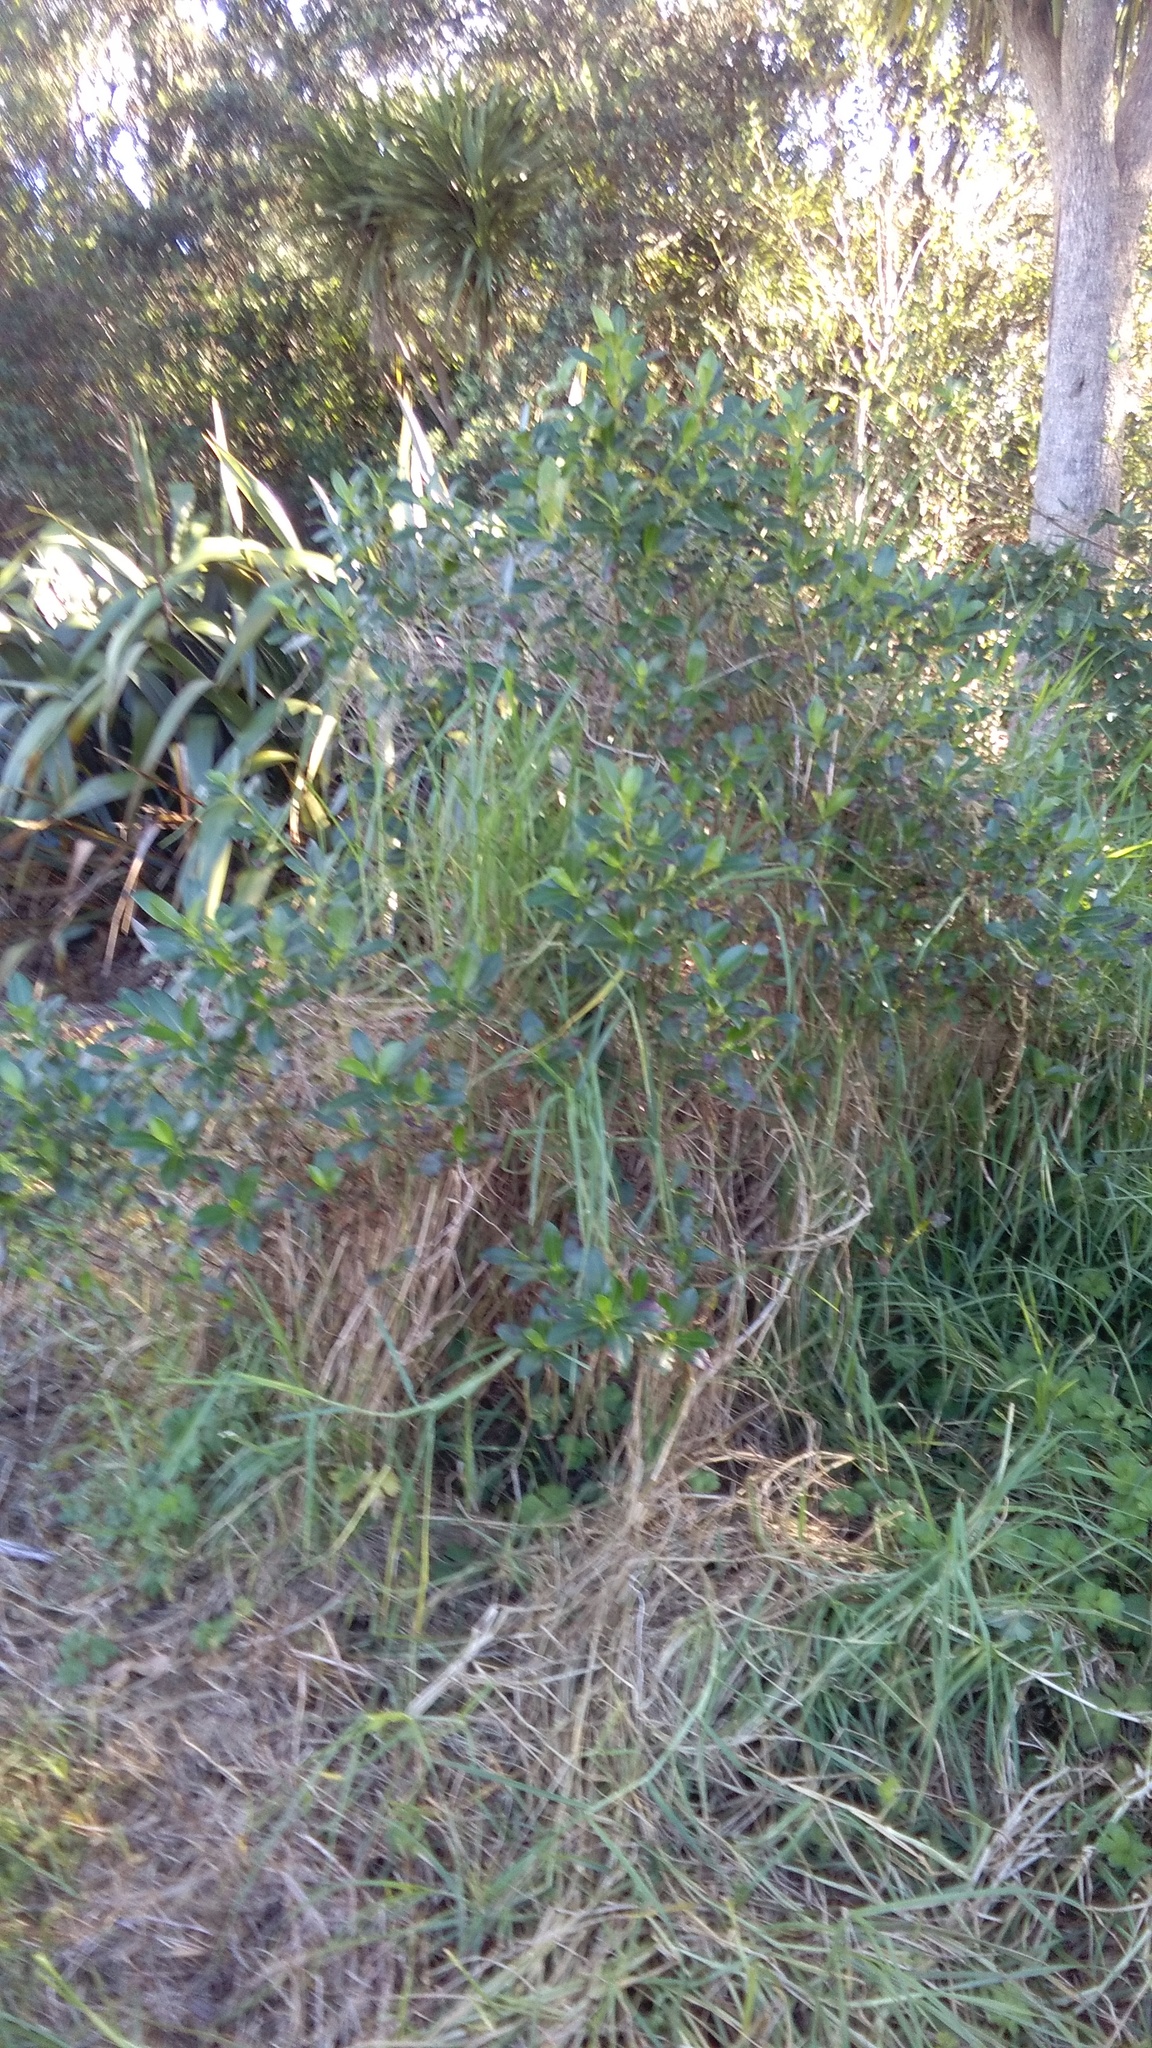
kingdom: Plantae
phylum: Tracheophyta
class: Liliopsida
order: Poales
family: Poaceae
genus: Cenchrus
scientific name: Cenchrus clandestinus
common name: Kikuyugrass
